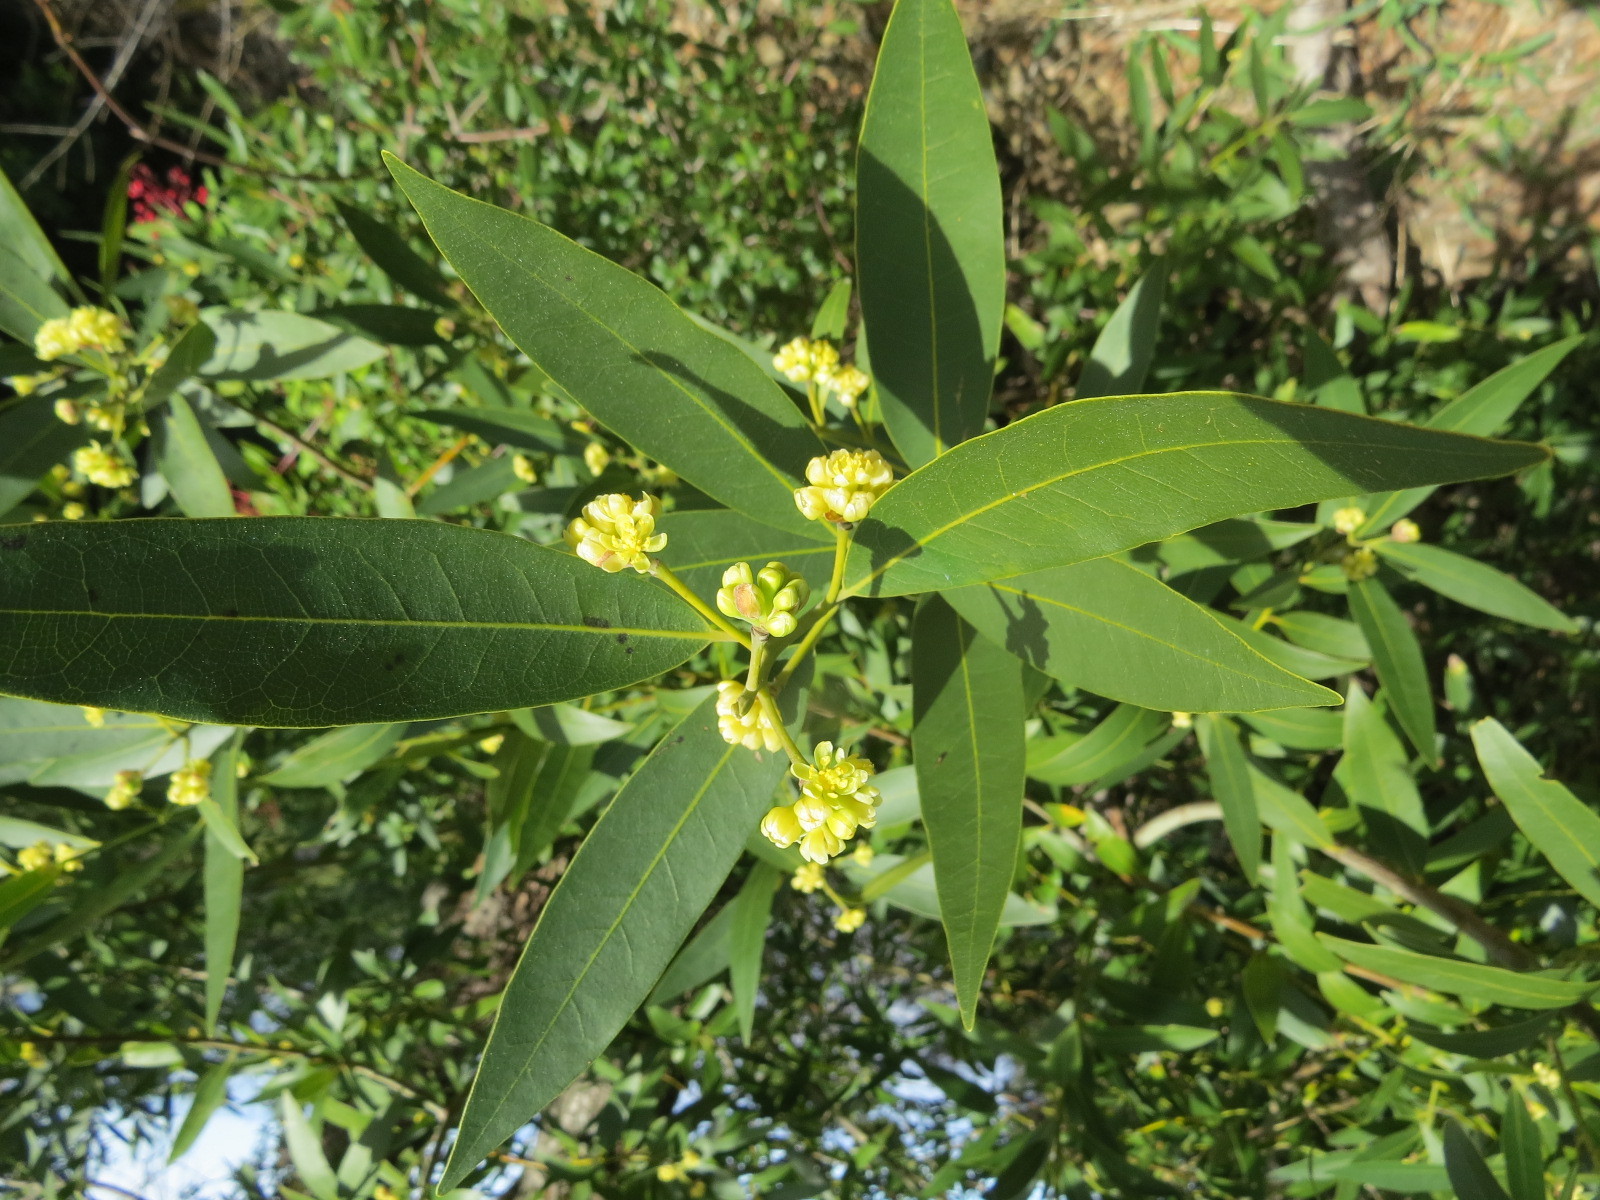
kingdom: Plantae
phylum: Tracheophyta
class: Magnoliopsida
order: Laurales
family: Lauraceae
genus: Umbellularia
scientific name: Umbellularia californica
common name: California bay
